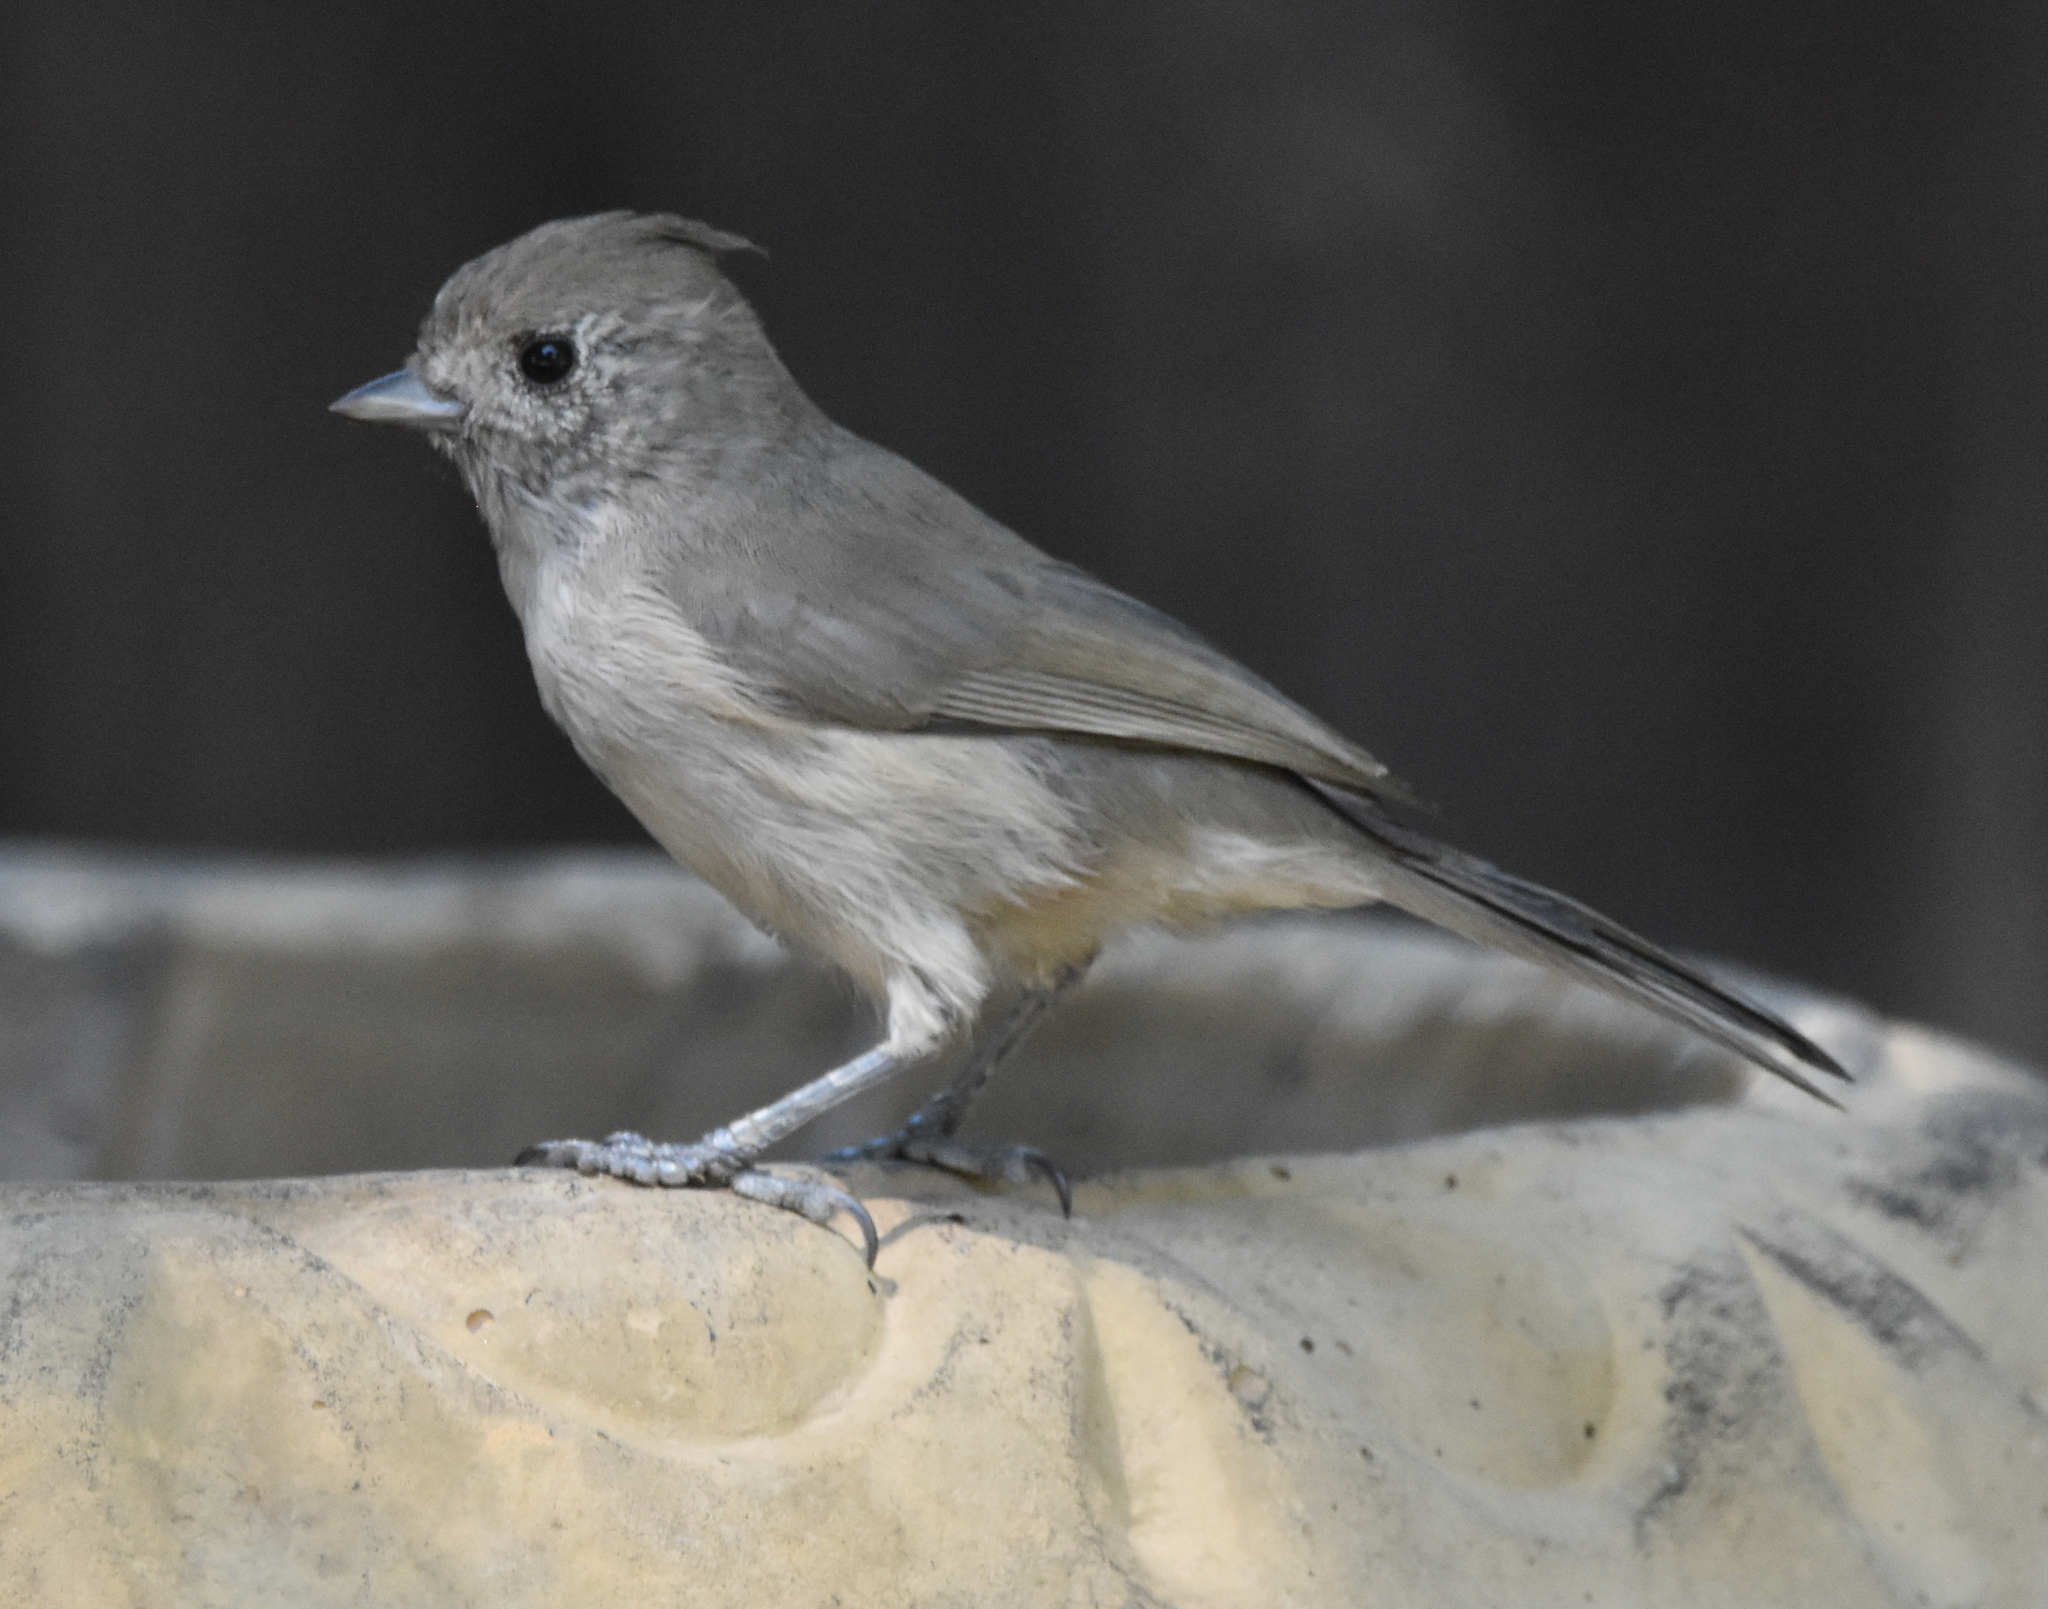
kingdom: Animalia
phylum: Chordata
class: Aves
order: Passeriformes
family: Paridae
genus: Baeolophus
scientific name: Baeolophus inornatus
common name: Oak titmouse
